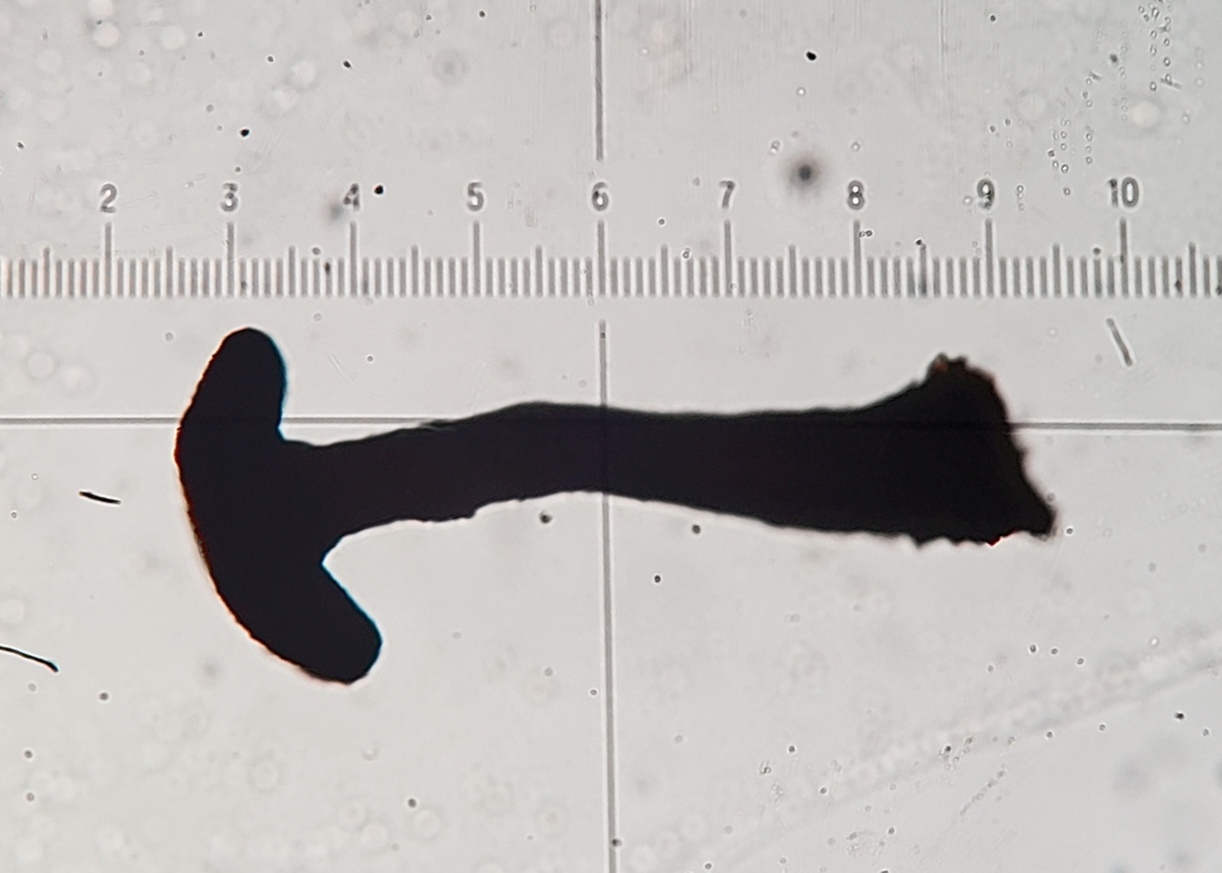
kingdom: Fungi
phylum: Ascomycota
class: Eurotiomycetes
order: Mycocaliciales
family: Mycocaliciaceae
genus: Mycocalicium
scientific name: Mycocalicium subtile
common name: Snag pin lichen
